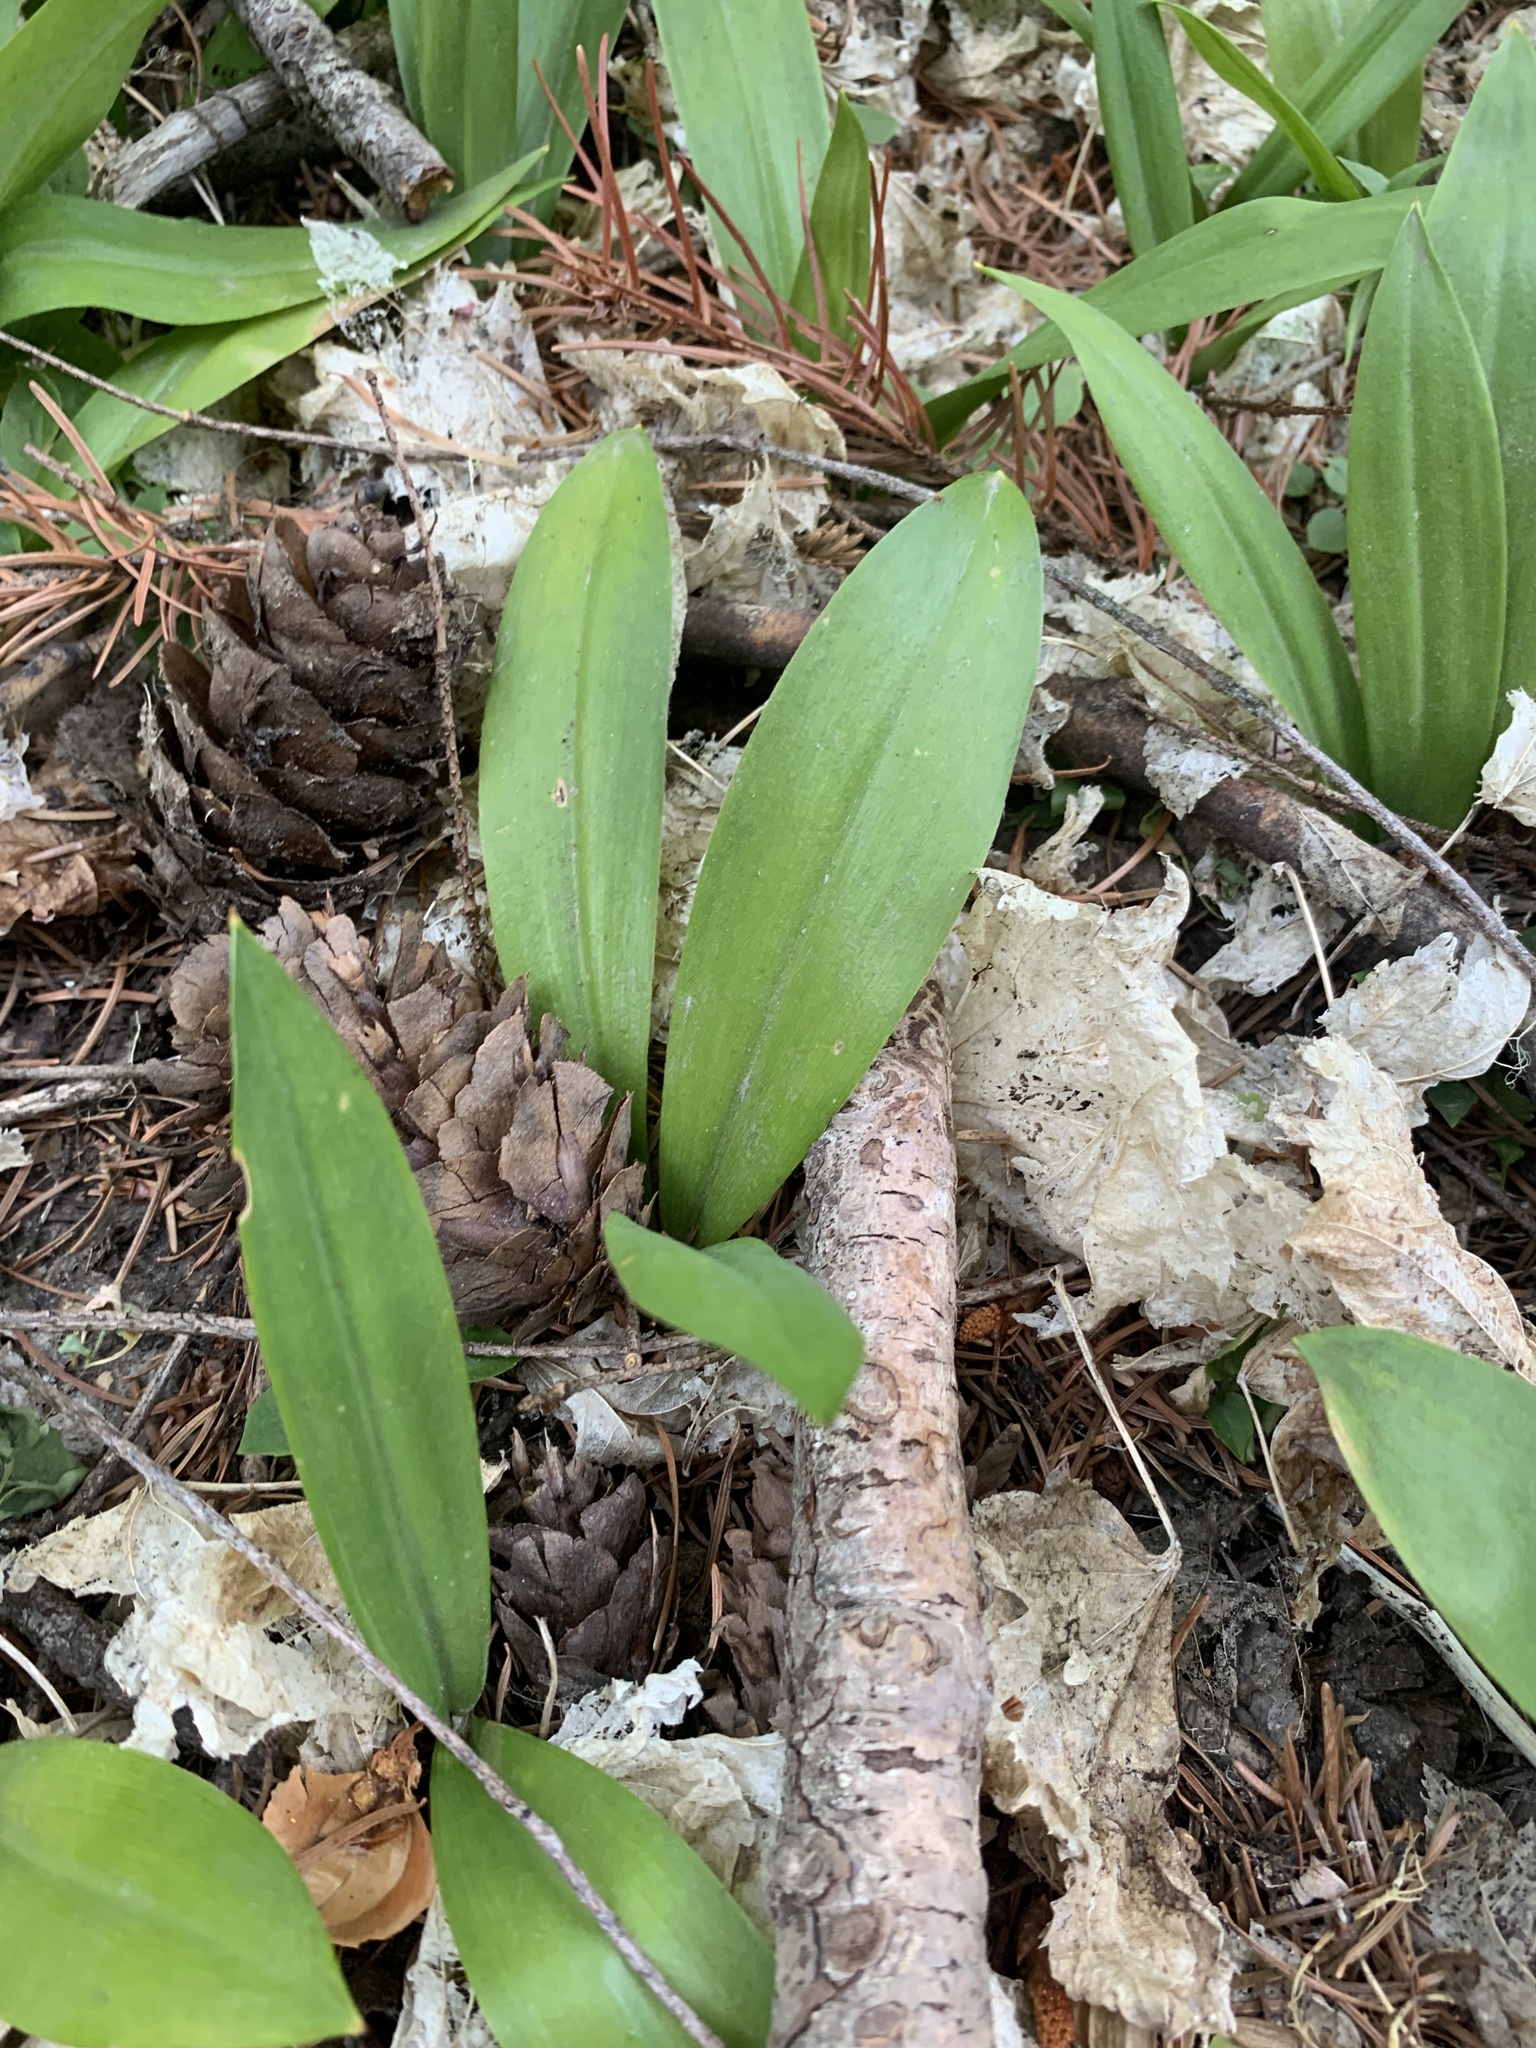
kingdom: Plantae
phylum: Tracheophyta
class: Liliopsida
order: Liliales
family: Liliaceae
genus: Clintonia
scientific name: Clintonia uniflora
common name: Queen's cup
